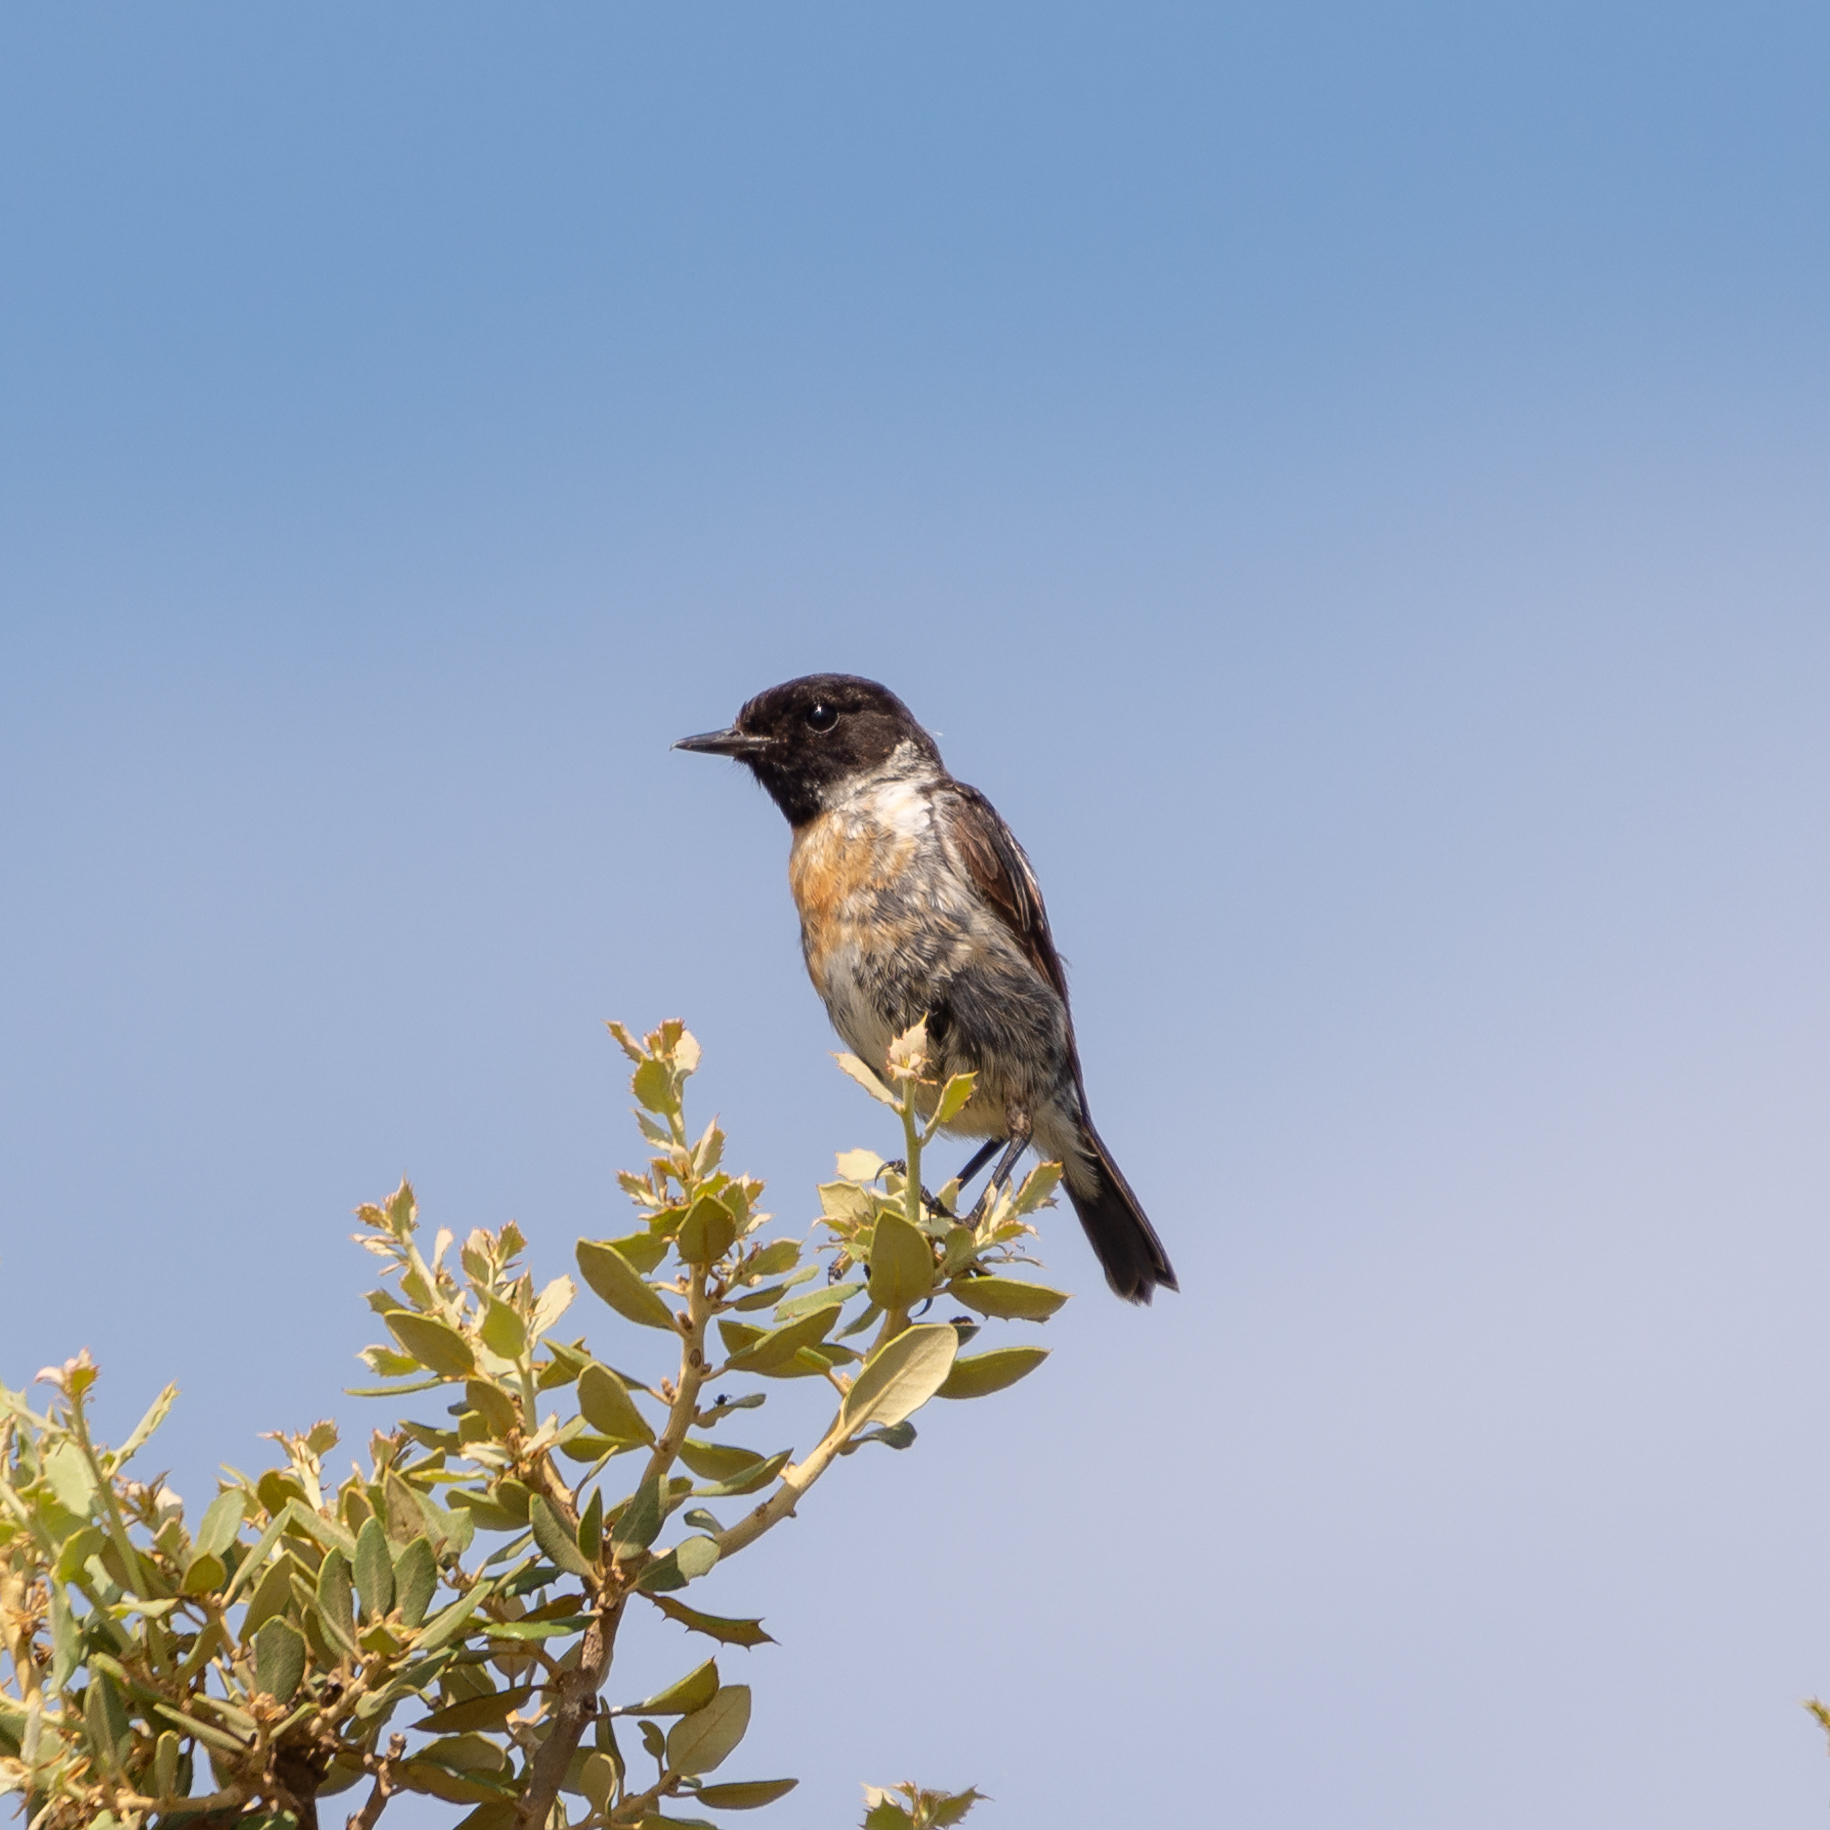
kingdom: Animalia
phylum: Chordata
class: Aves
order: Passeriformes
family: Muscicapidae
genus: Saxicola
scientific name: Saxicola rubicola
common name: European stonechat
